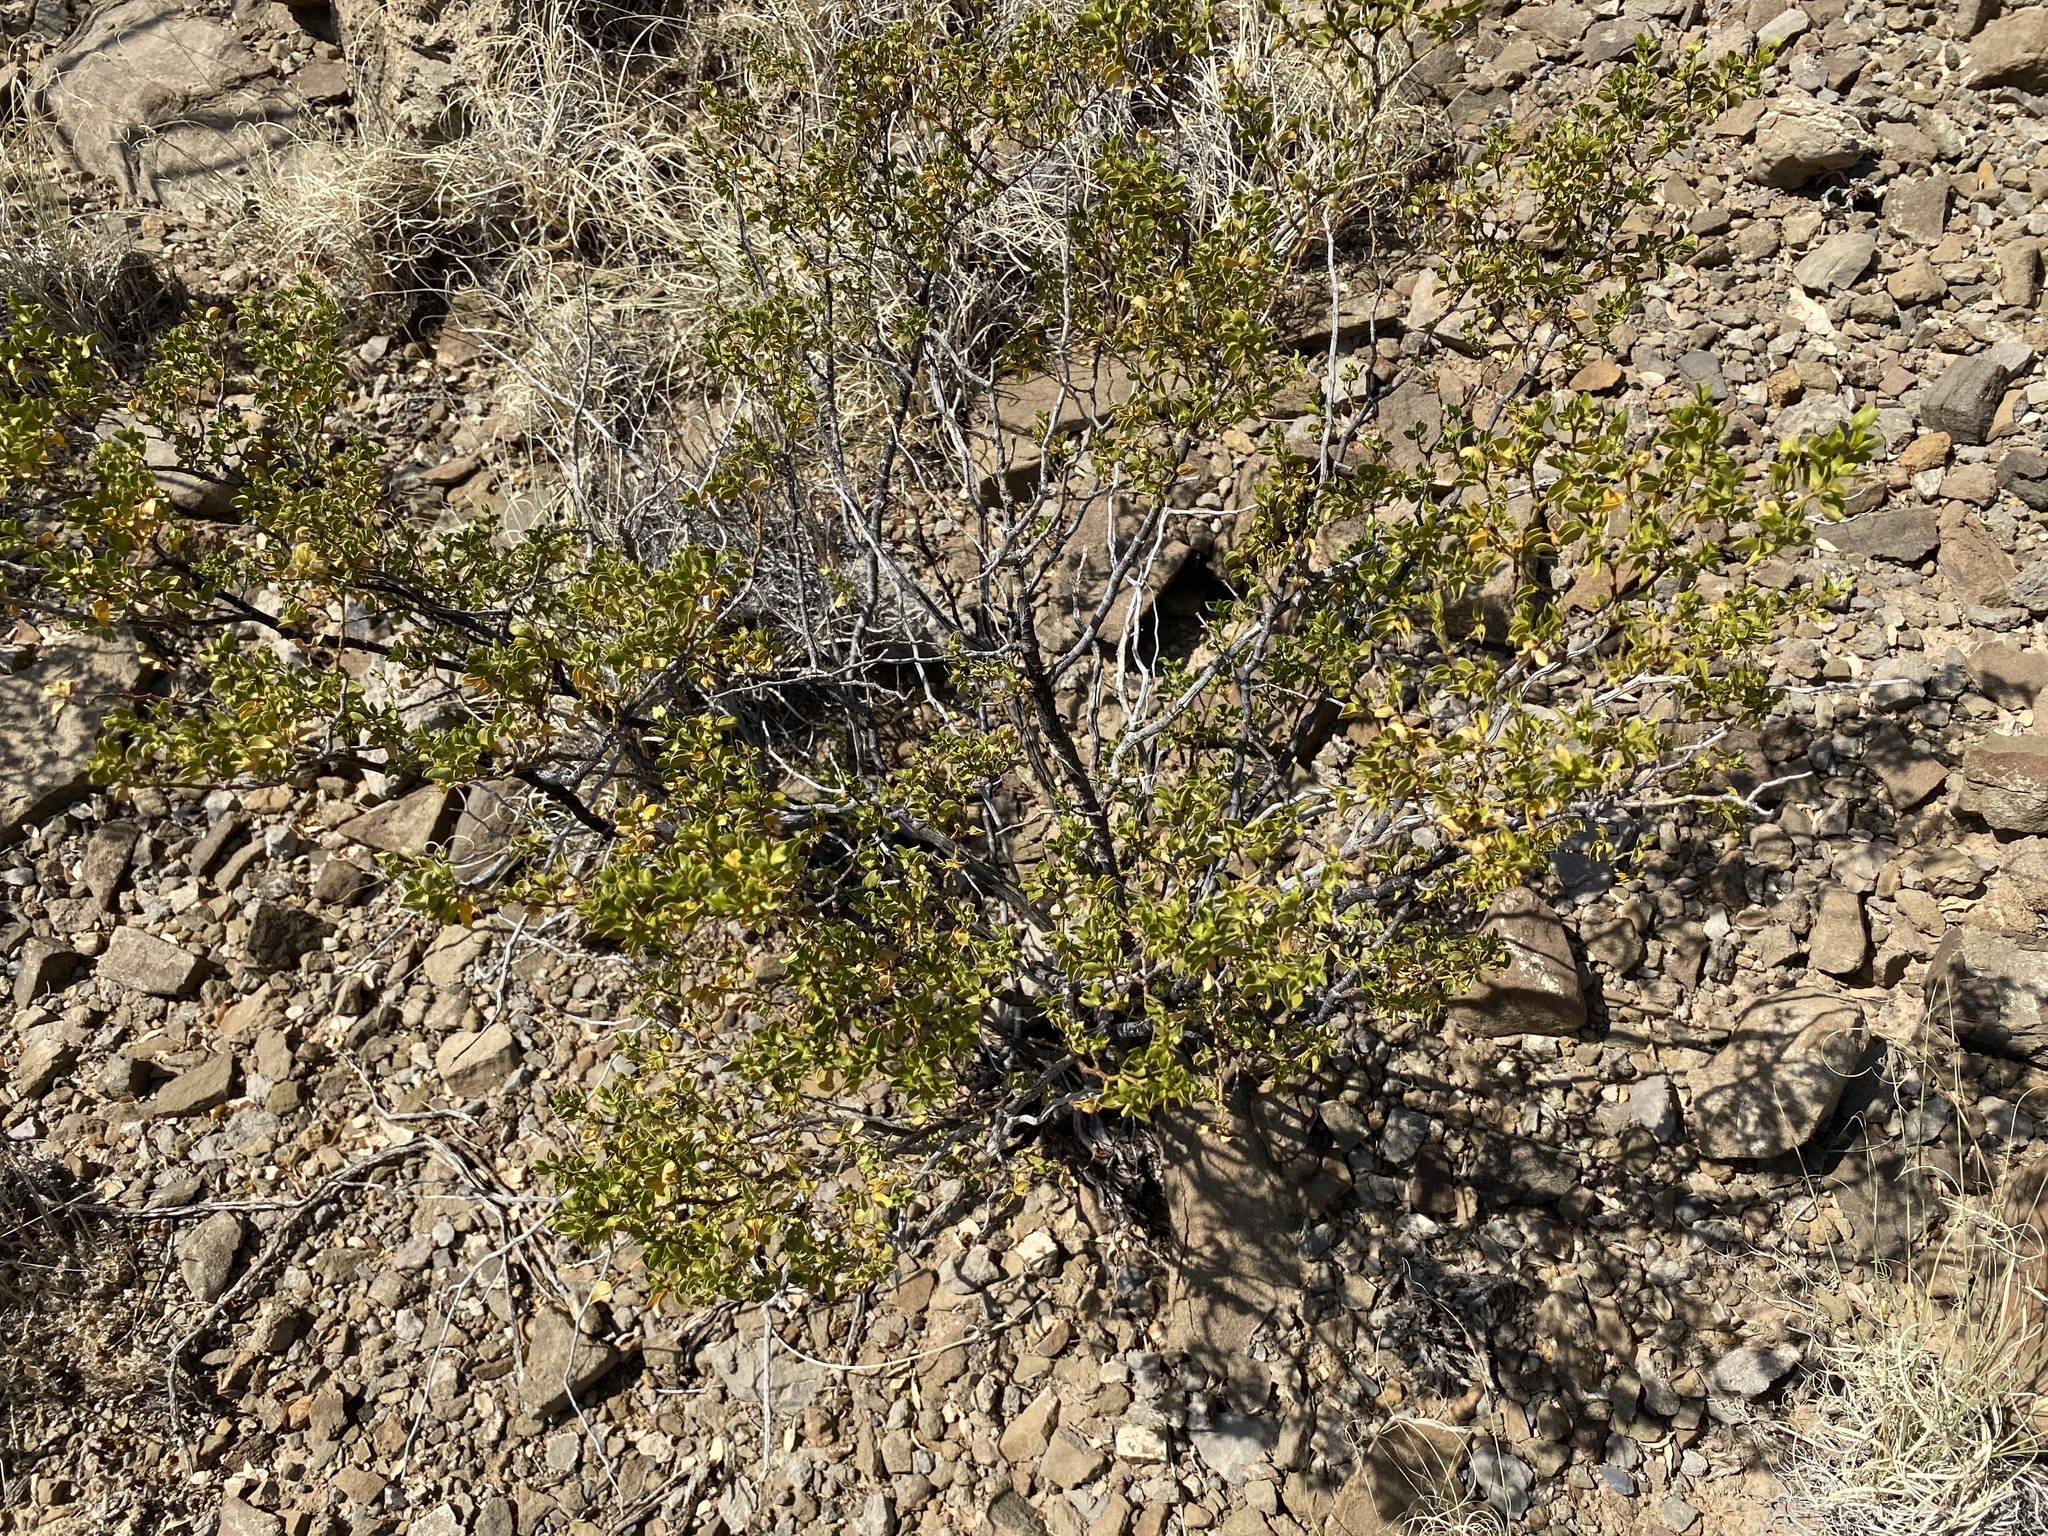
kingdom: Plantae
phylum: Tracheophyta
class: Magnoliopsida
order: Zygophyllales
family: Zygophyllaceae
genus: Larrea
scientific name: Larrea tridentata
